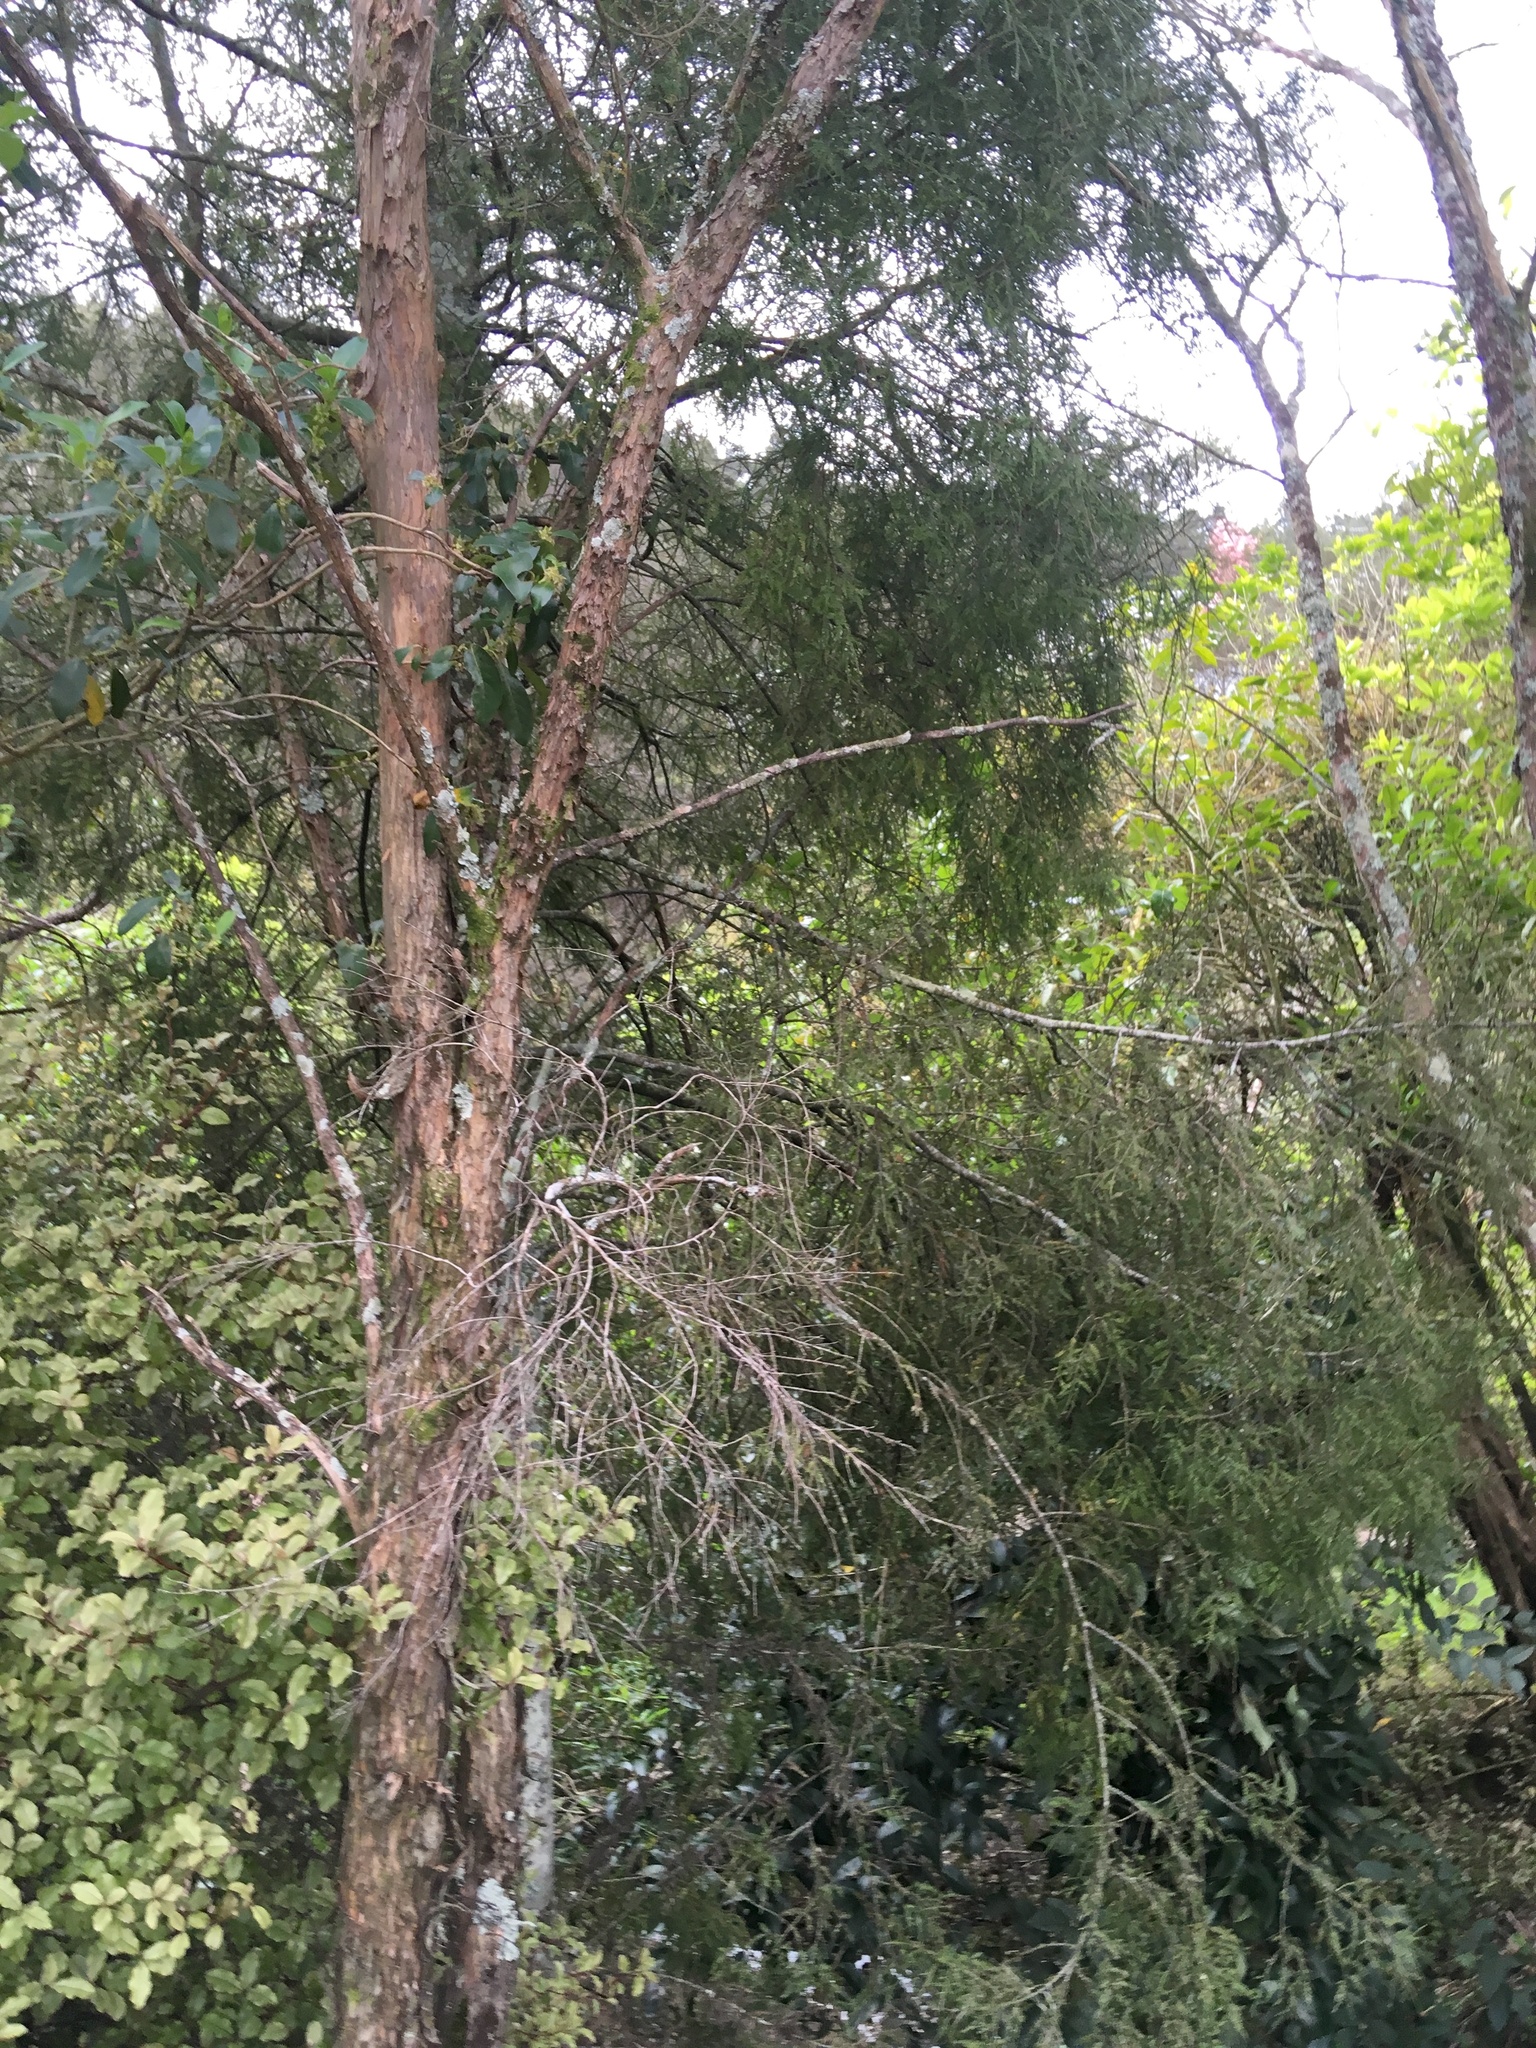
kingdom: Plantae
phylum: Tracheophyta
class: Pinopsida
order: Pinales
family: Podocarpaceae
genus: Dacrycarpus
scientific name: Dacrycarpus dacrydioides
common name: White pine
